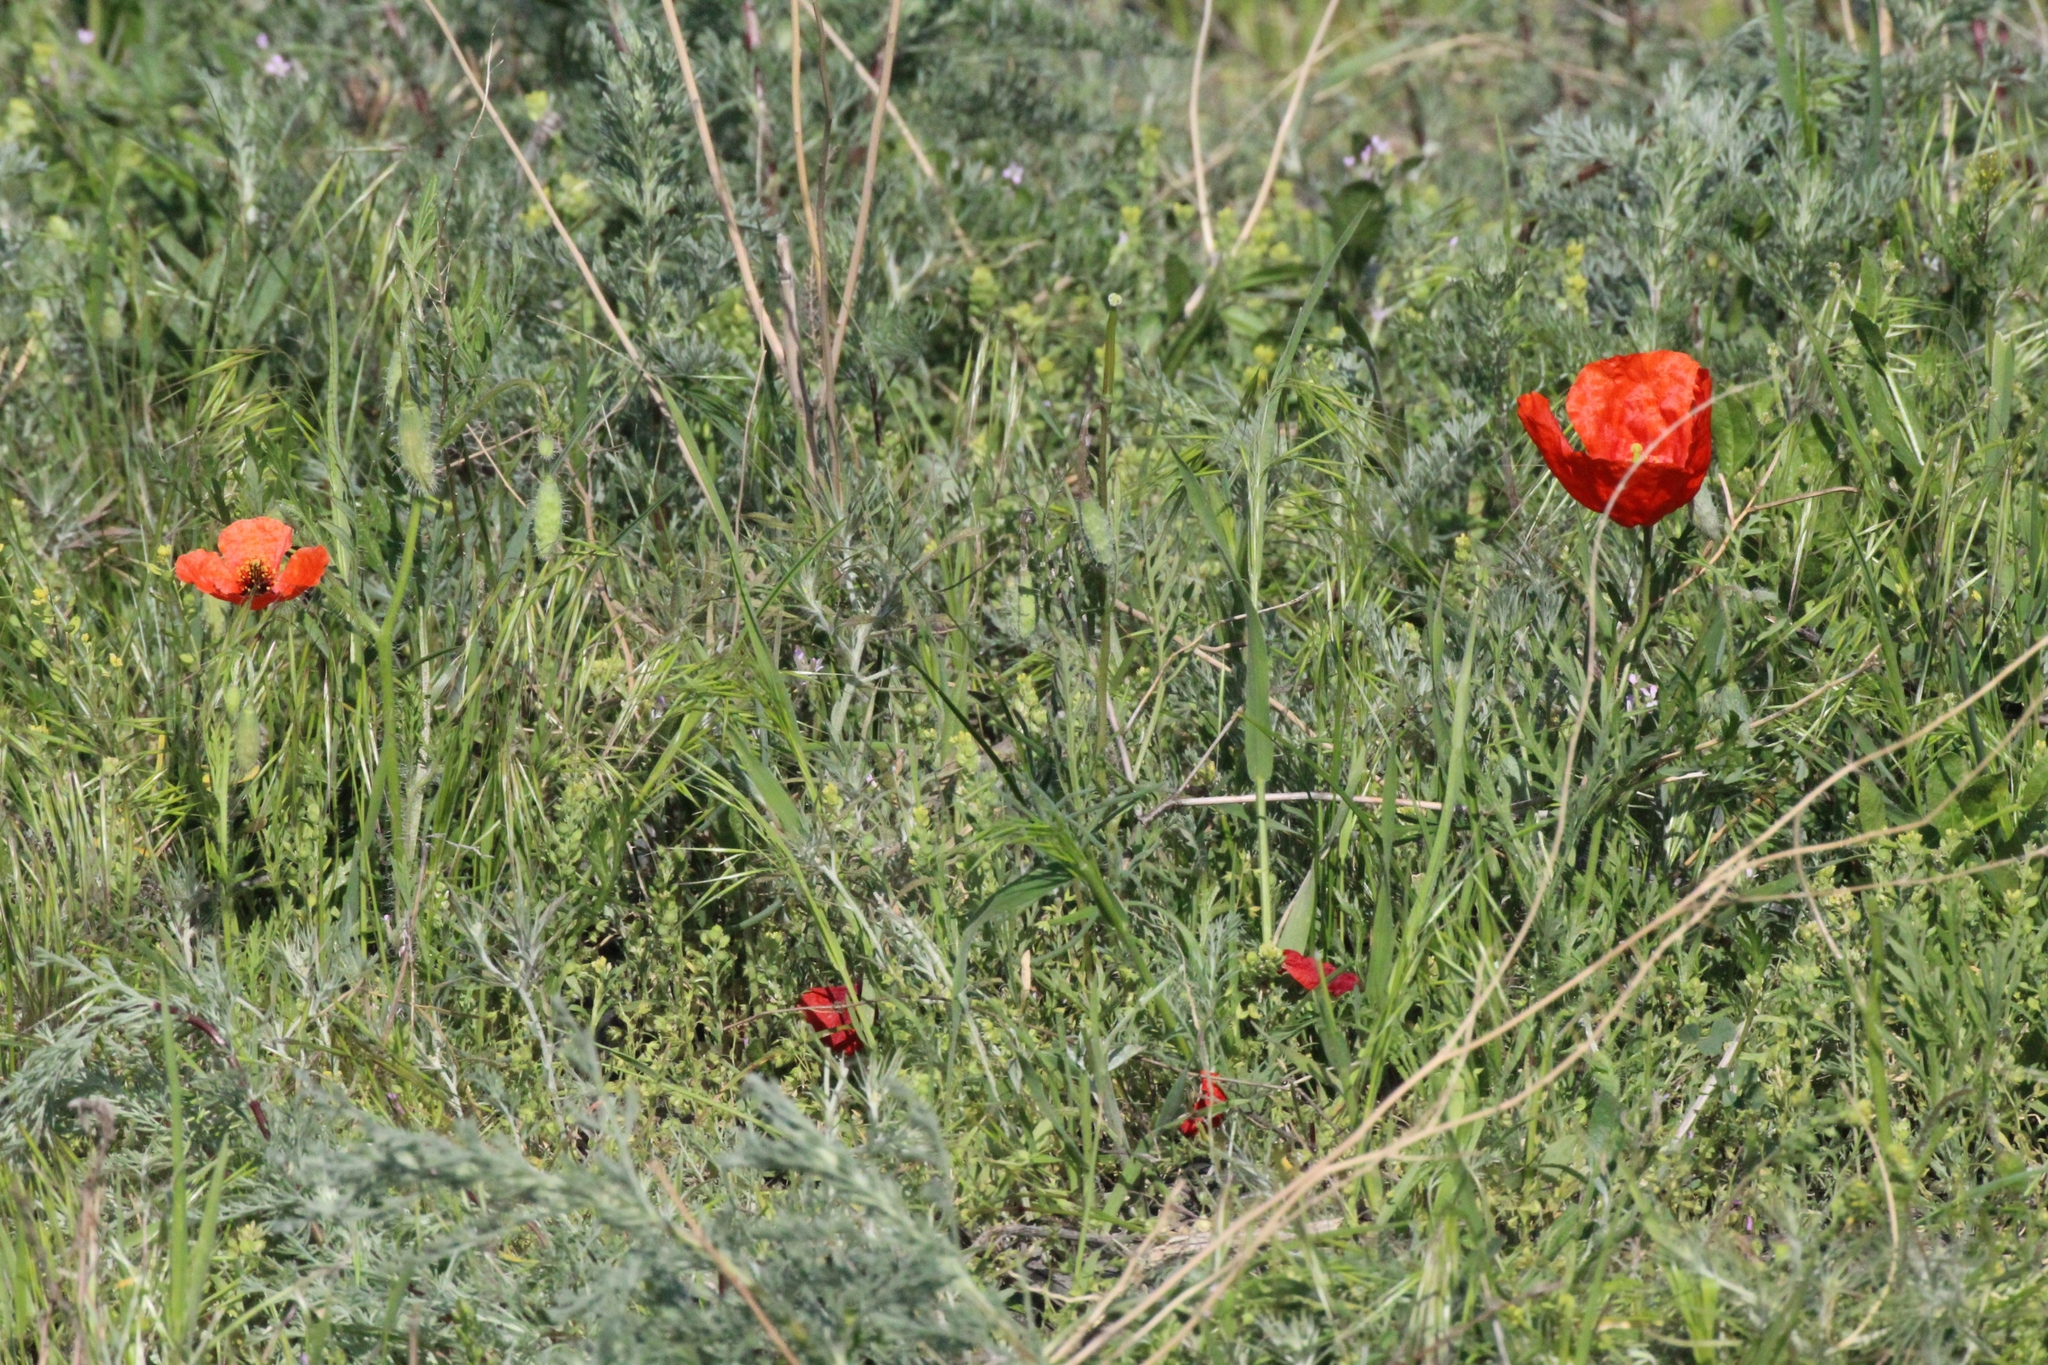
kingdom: Plantae
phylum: Tracheophyta
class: Magnoliopsida
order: Ranunculales
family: Papaveraceae
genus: Roemeria
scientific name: Roemeria refracta
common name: Spotted asian poppy
